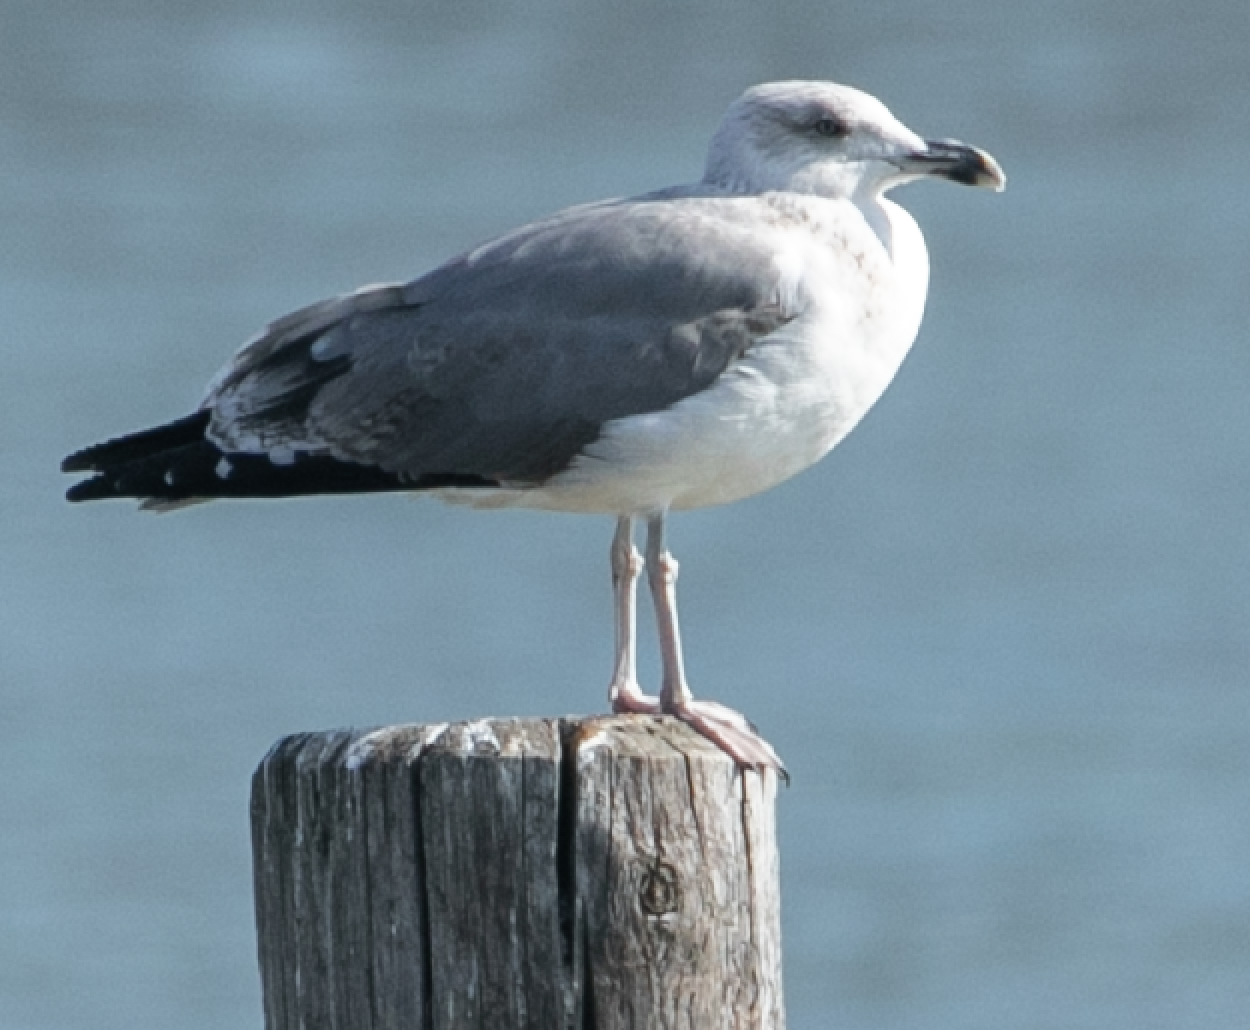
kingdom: Animalia
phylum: Chordata
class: Aves
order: Charadriiformes
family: Laridae
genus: Larus
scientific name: Larus michahellis
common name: Yellow-legged gull
